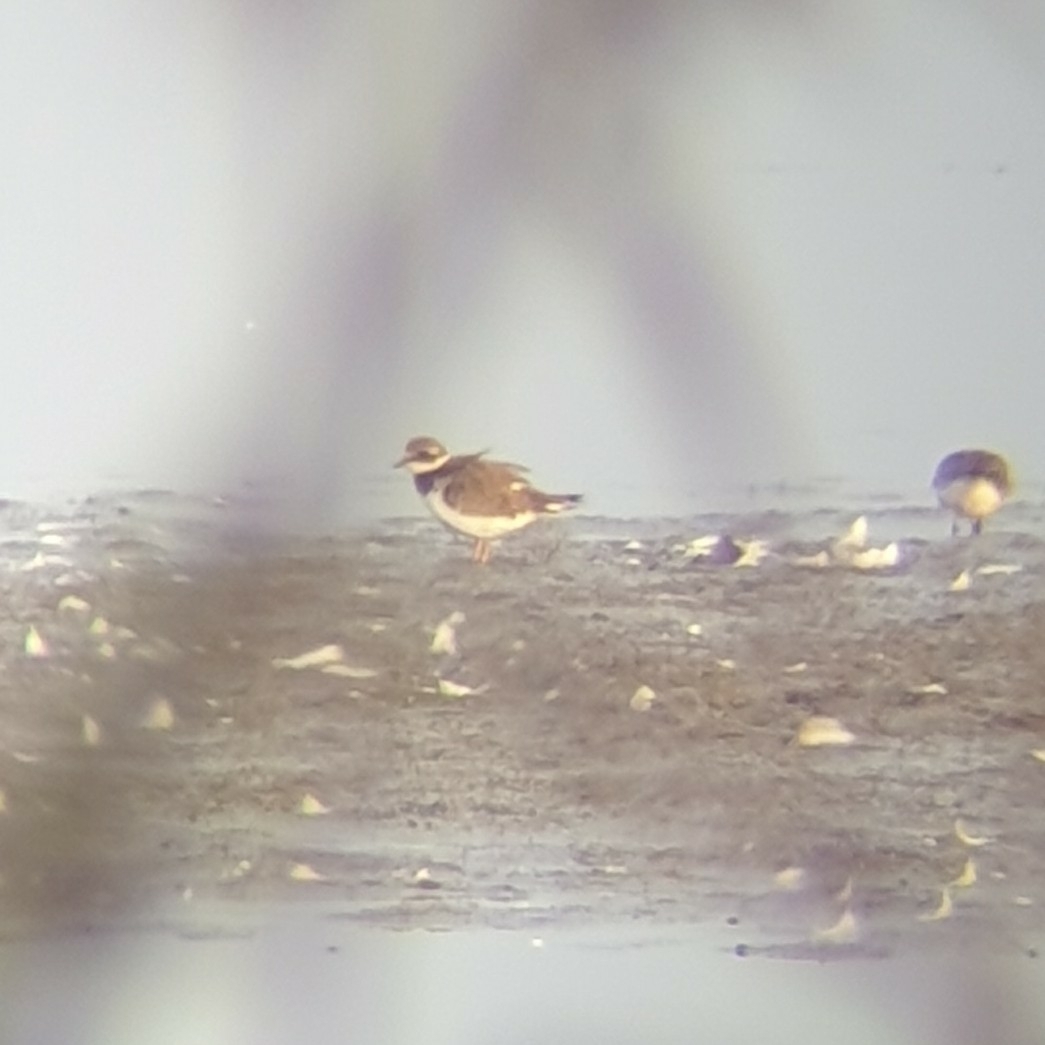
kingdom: Animalia
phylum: Chordata
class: Aves
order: Charadriiformes
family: Charadriidae
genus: Charadrius
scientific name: Charadrius hiaticula
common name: Common ringed plover
